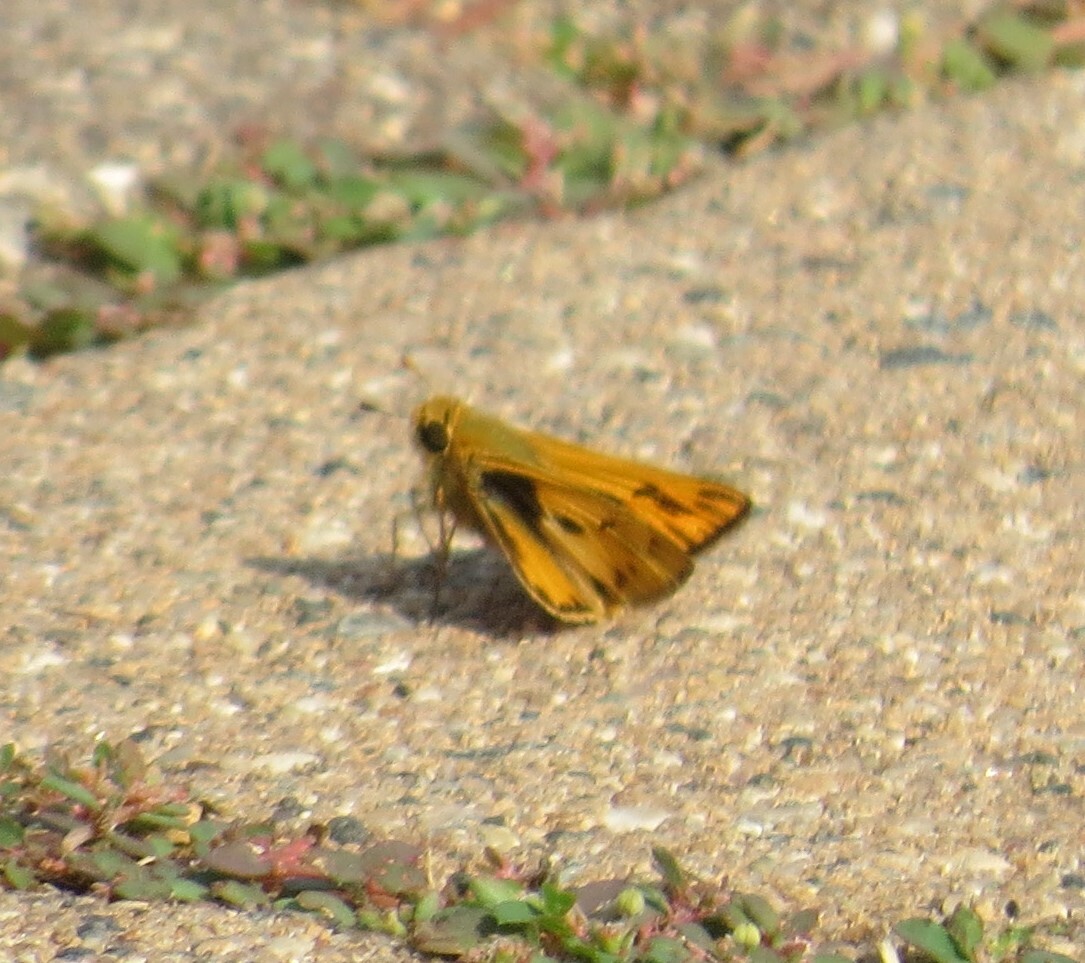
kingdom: Animalia
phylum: Arthropoda
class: Insecta
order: Lepidoptera
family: Hesperiidae
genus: Hylephila
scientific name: Hylephila phyleus
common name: Fiery skipper
